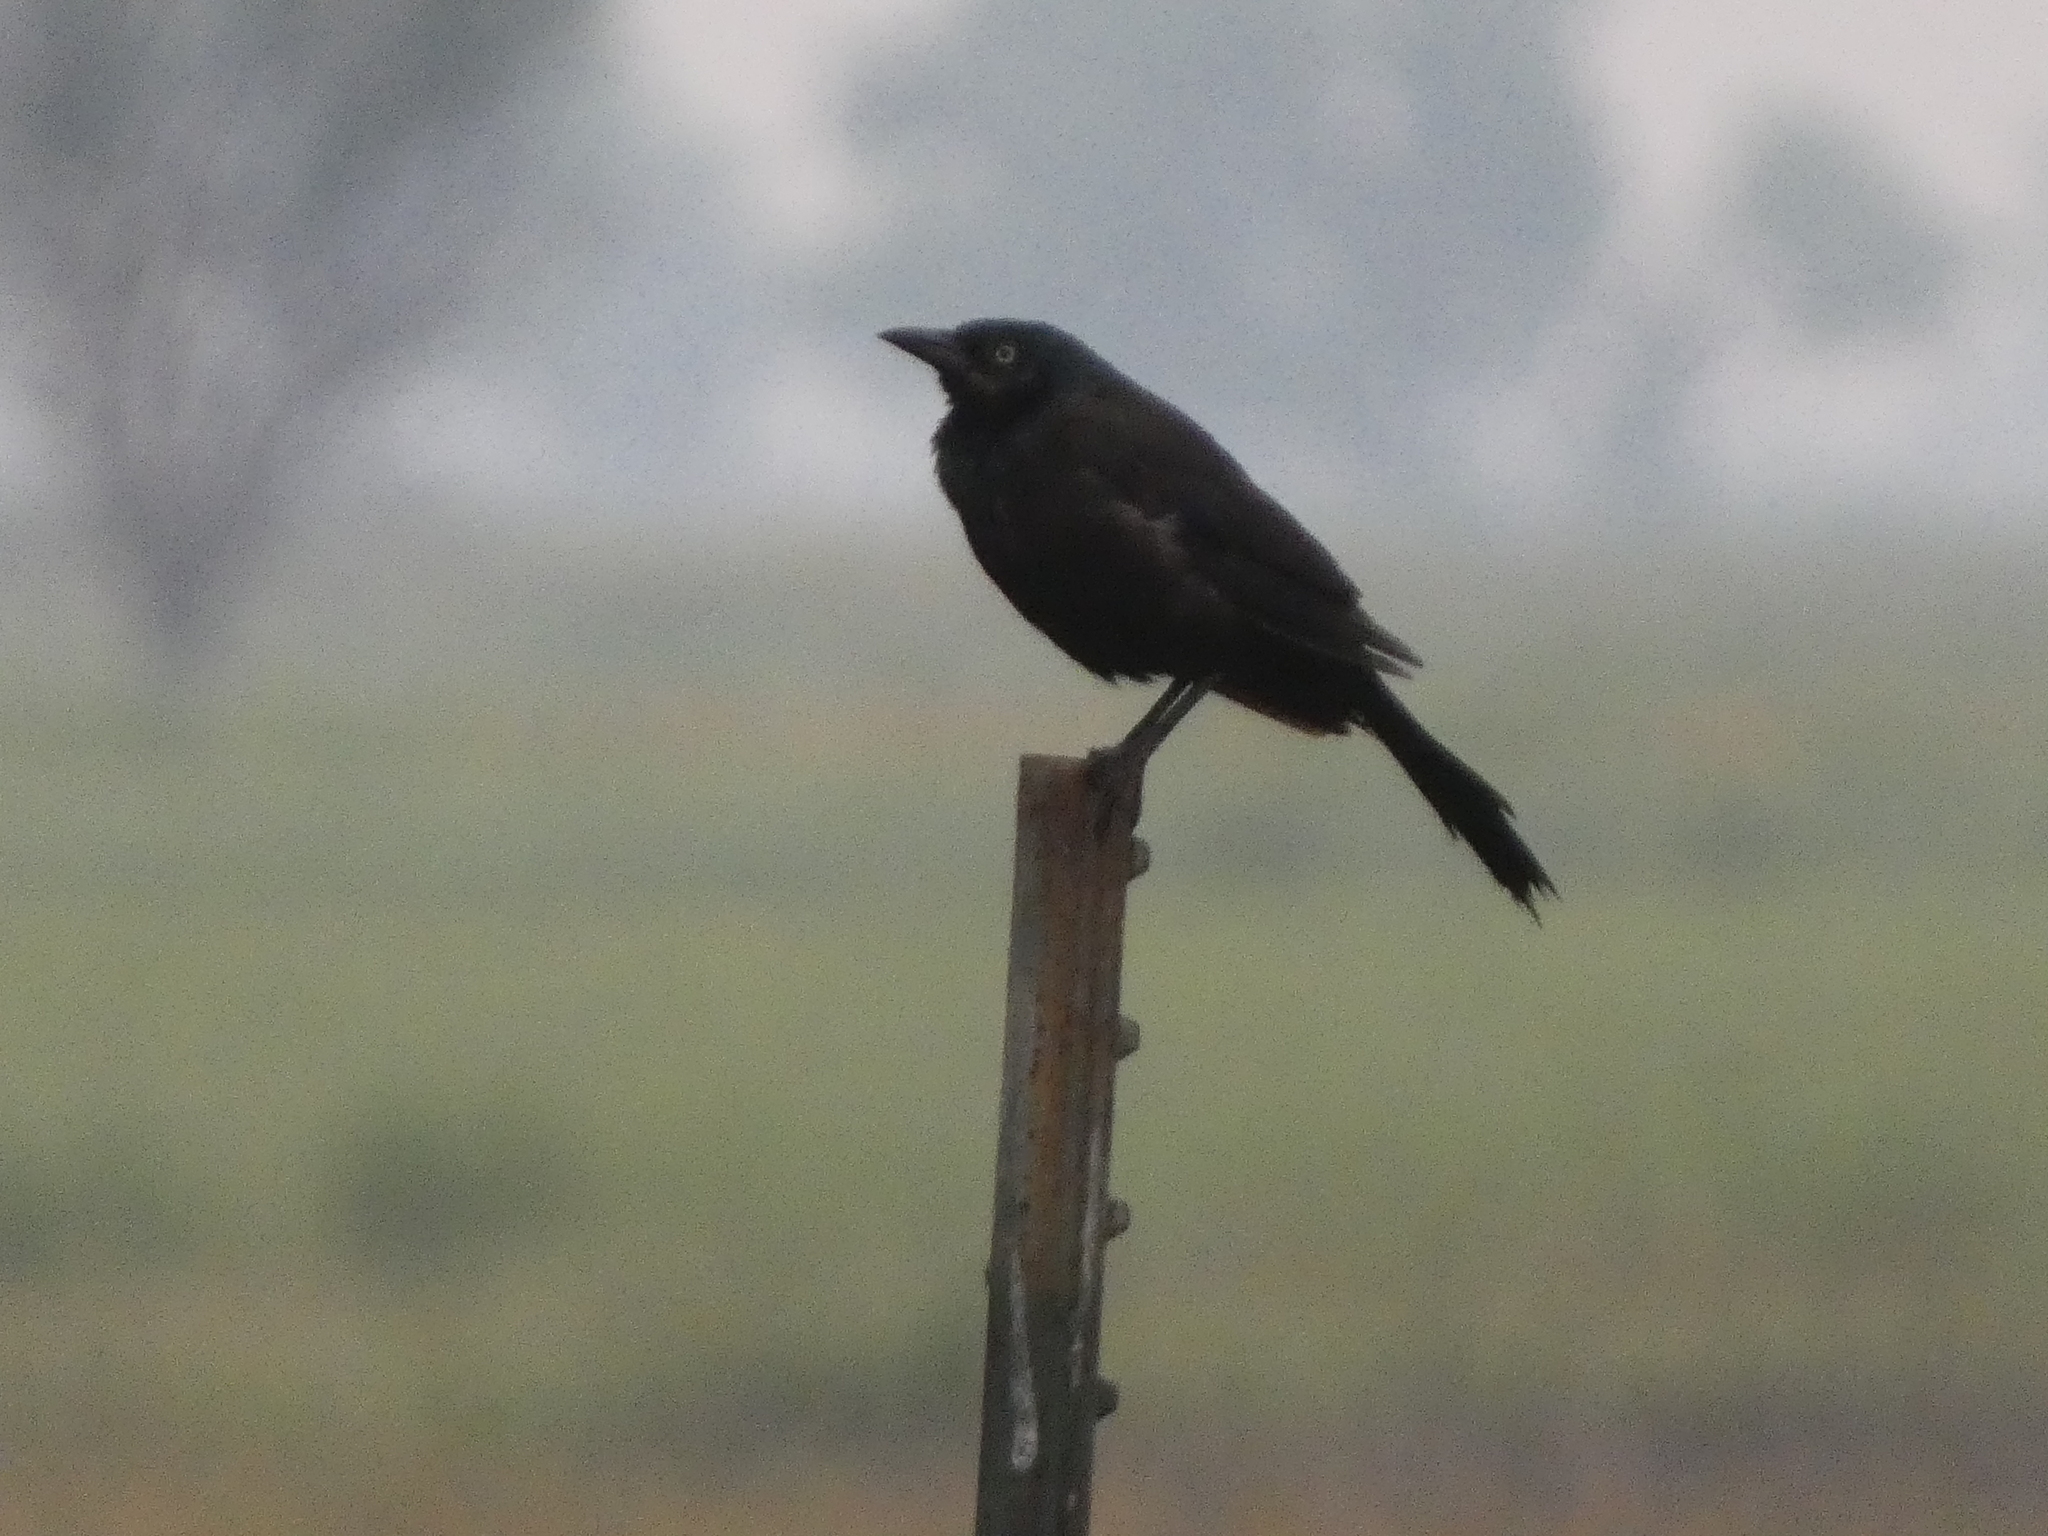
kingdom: Animalia
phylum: Chordata
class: Aves
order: Passeriformes
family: Icteridae
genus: Quiscalus
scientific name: Quiscalus quiscula
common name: Common grackle
